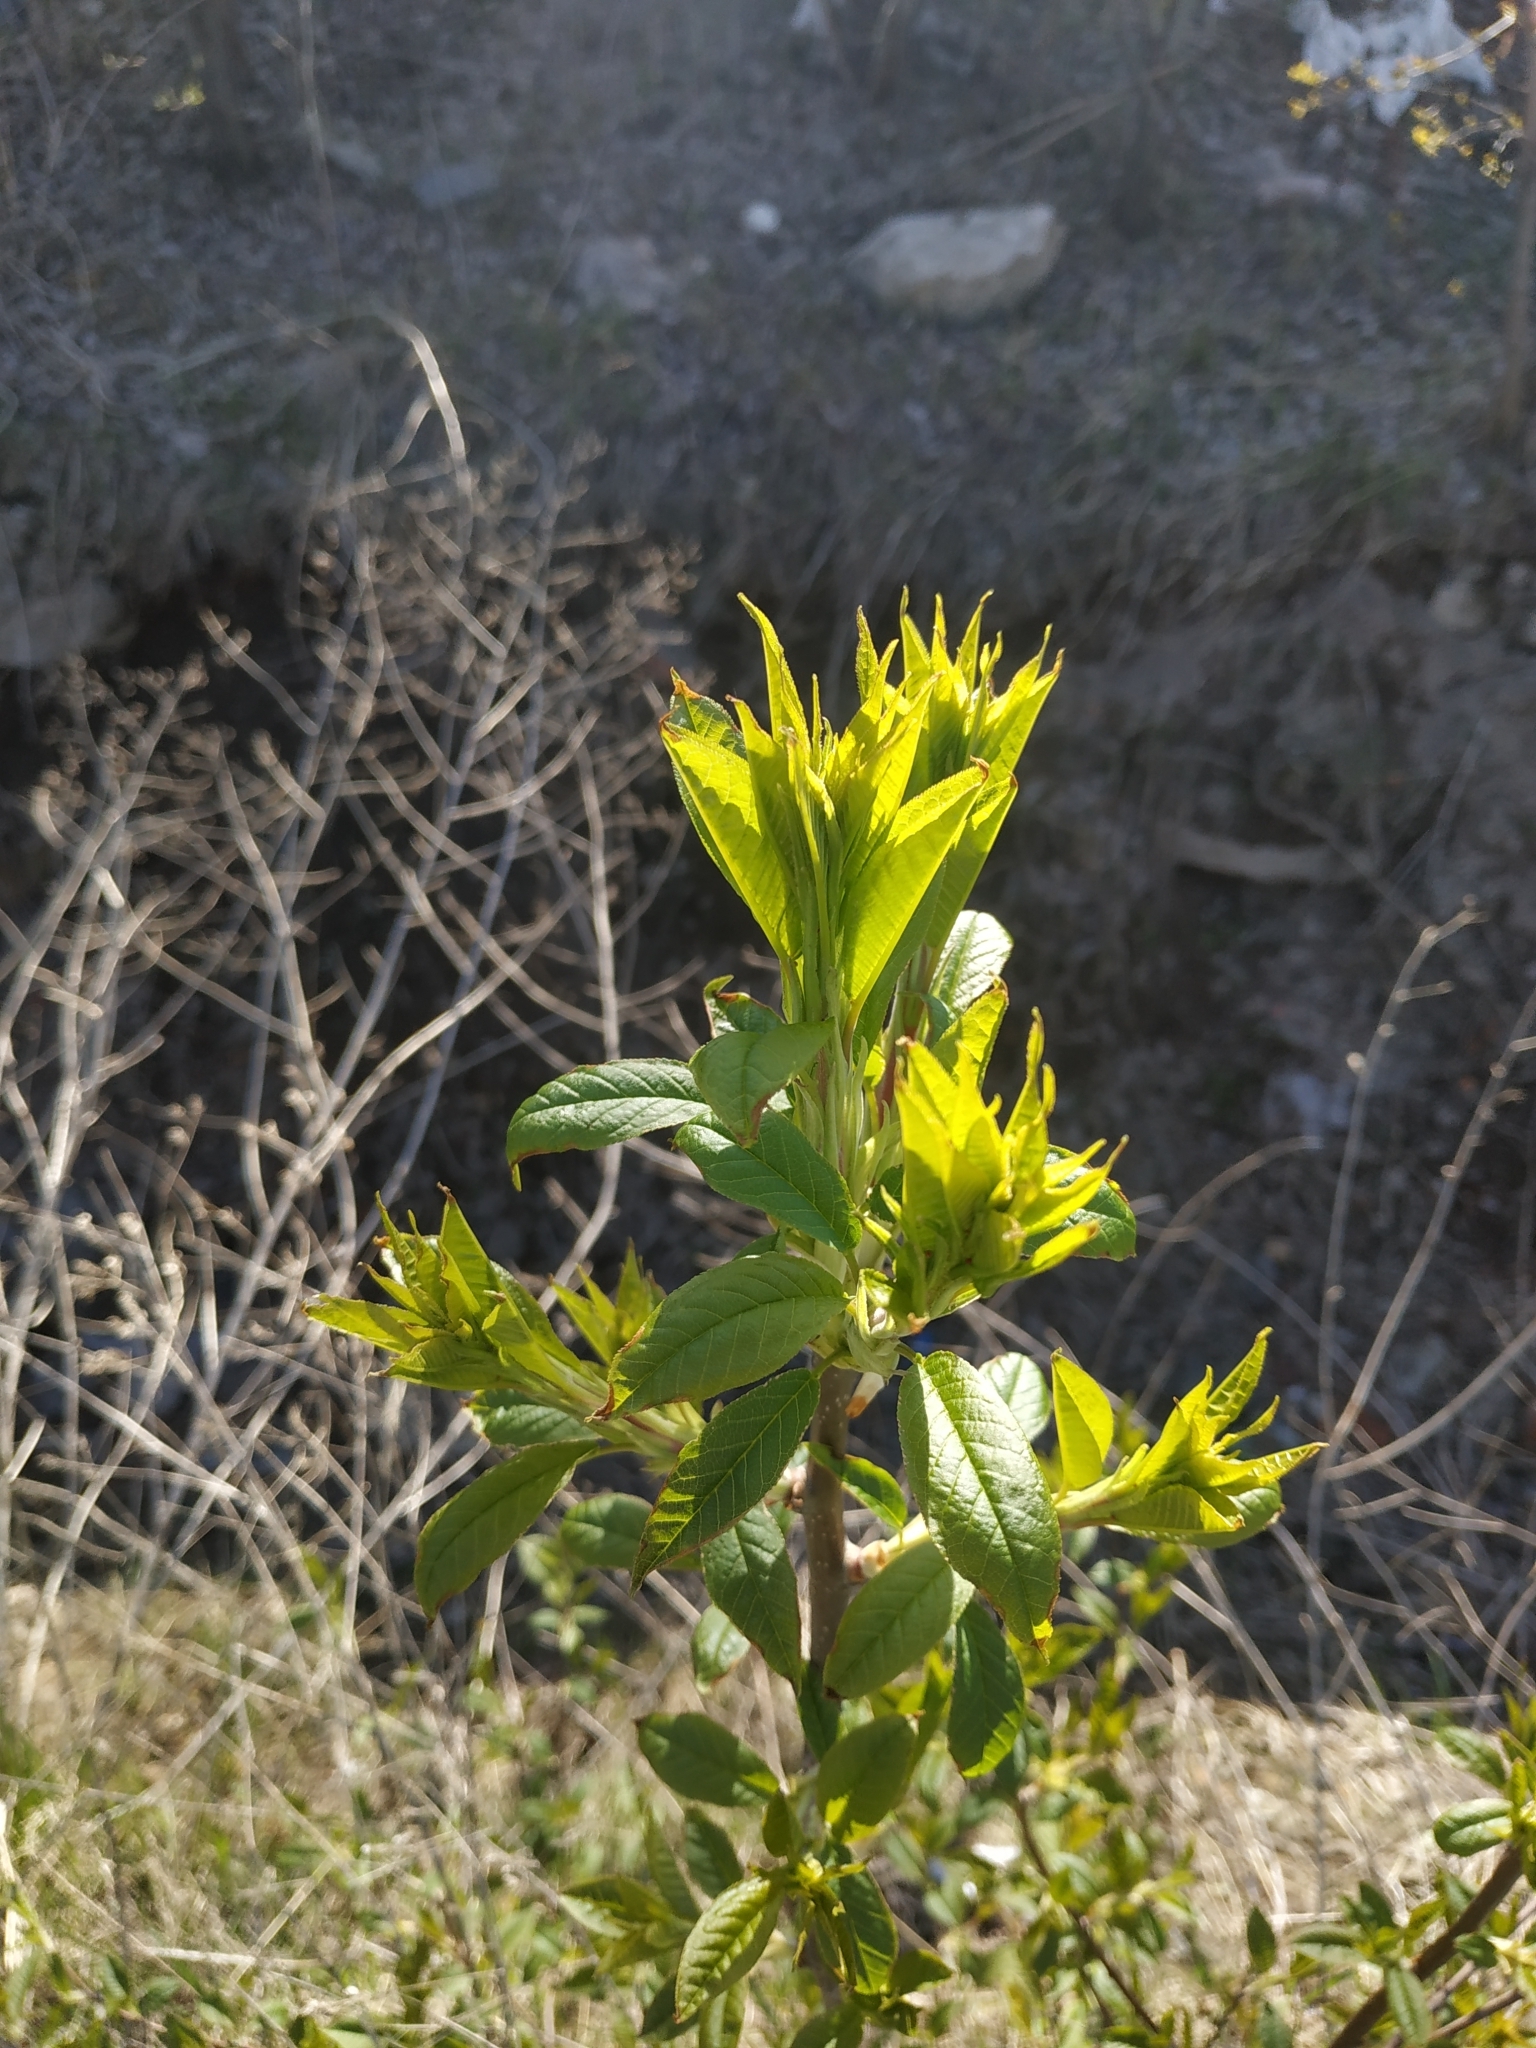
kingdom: Plantae
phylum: Tracheophyta
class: Magnoliopsida
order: Rosales
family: Rosaceae
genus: Prunus
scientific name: Prunus padus
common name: Bird cherry
